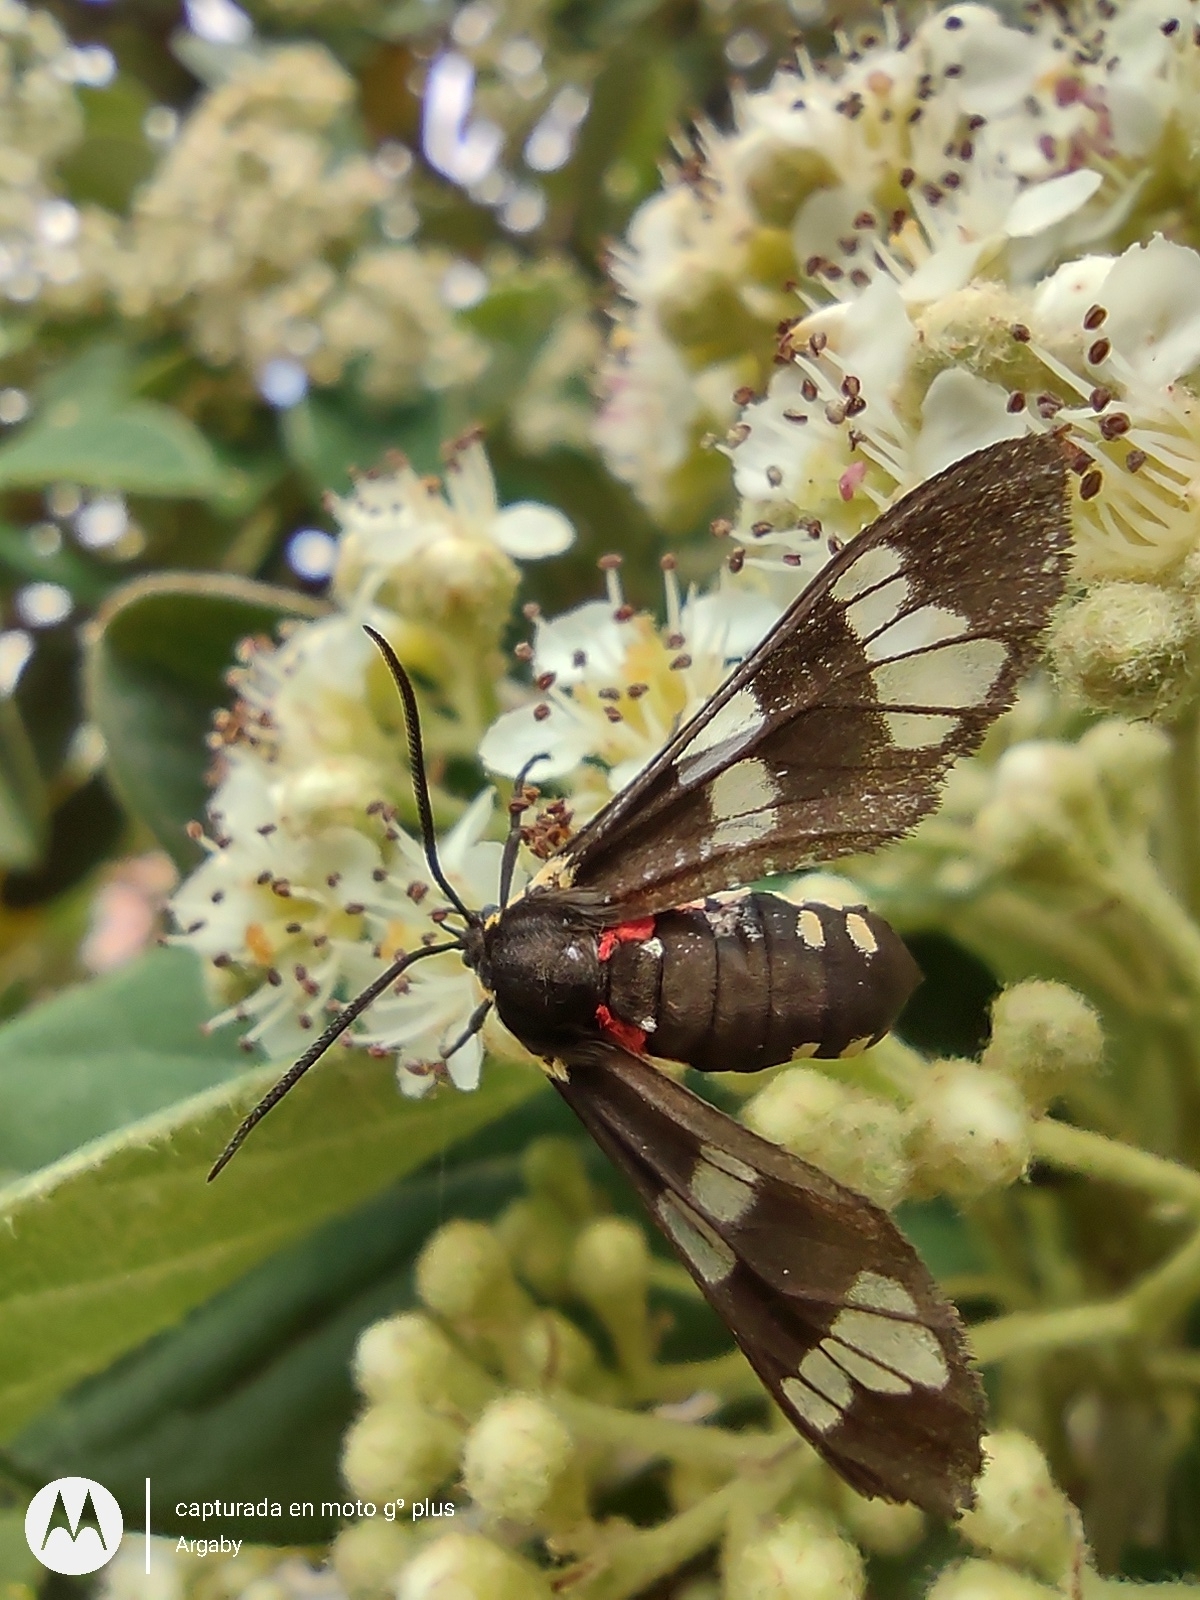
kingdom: Animalia
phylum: Arthropoda
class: Insecta
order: Lepidoptera
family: Erebidae
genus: Eurata
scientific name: Eurata hermione
